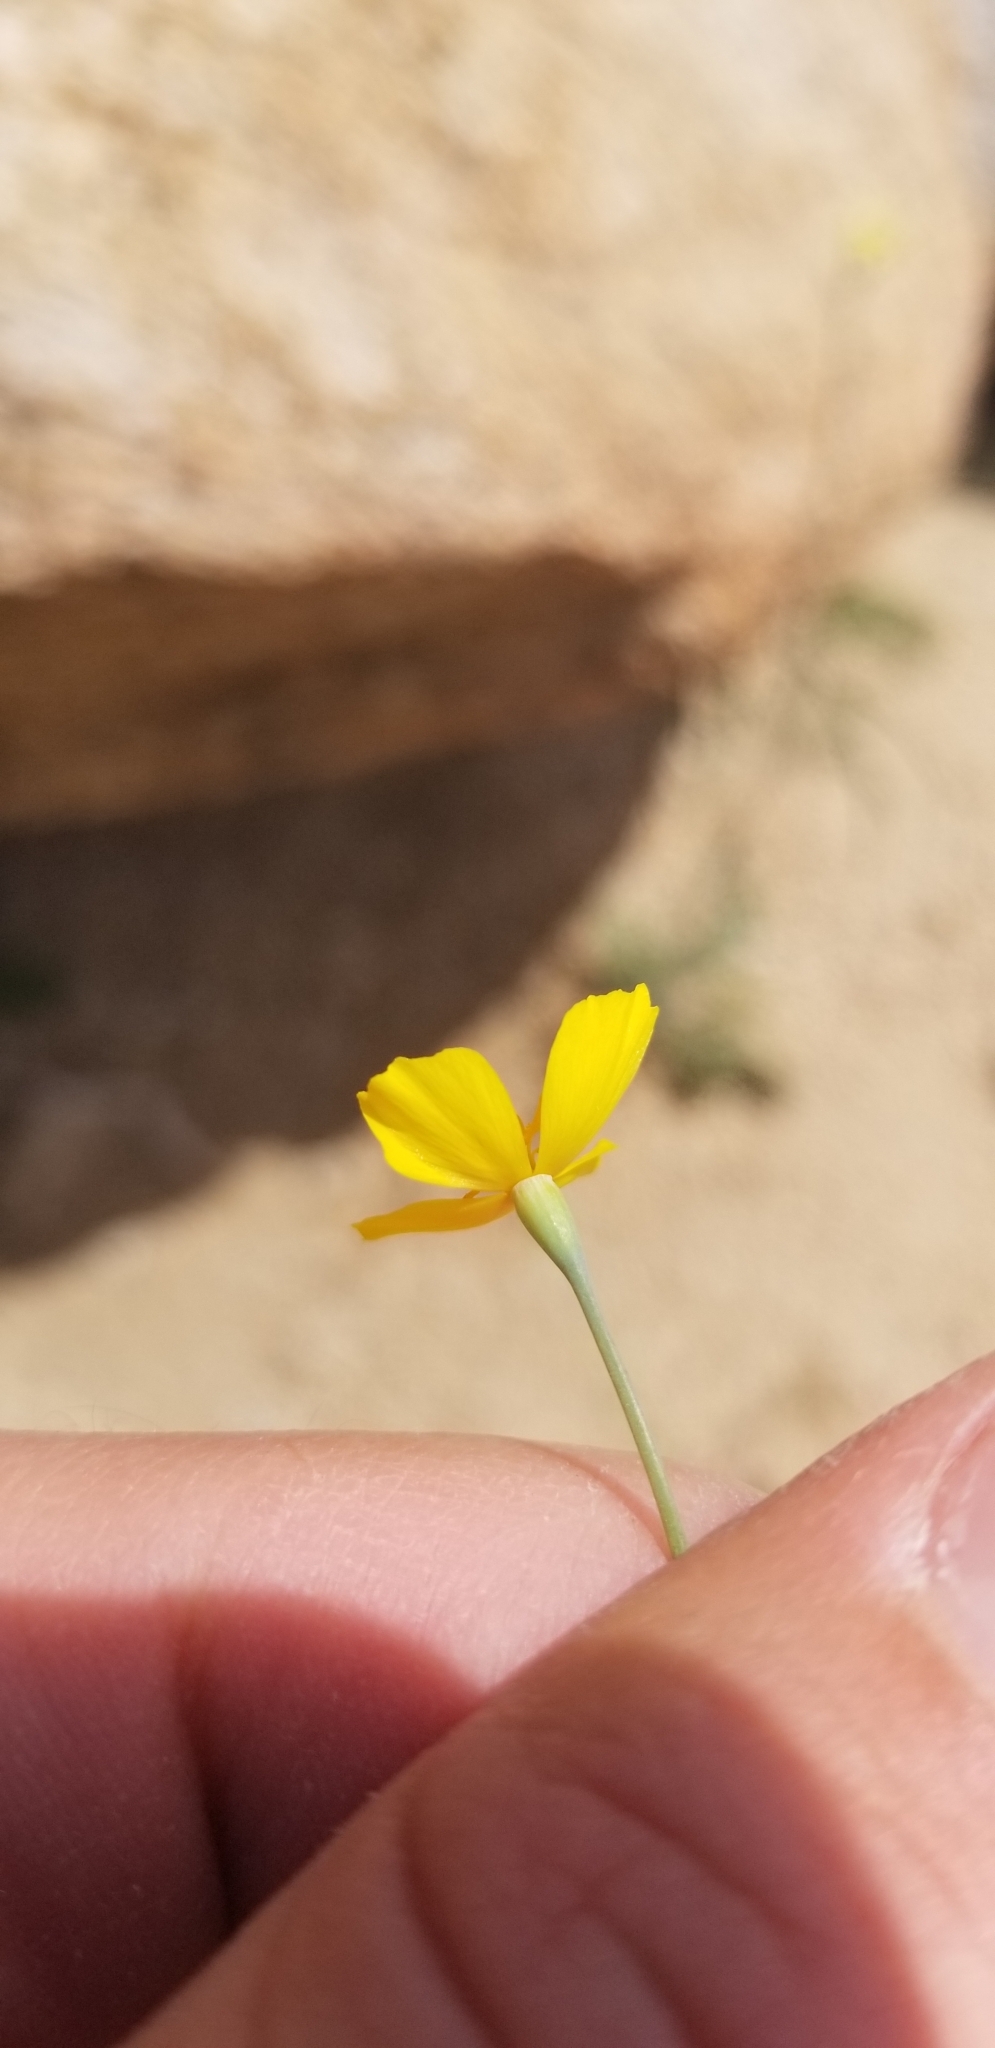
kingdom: Plantae
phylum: Tracheophyta
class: Magnoliopsida
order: Ranunculales
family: Papaveraceae
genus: Eschscholzia
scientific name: Eschscholzia minutiflora
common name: Small-flower california-poppy
